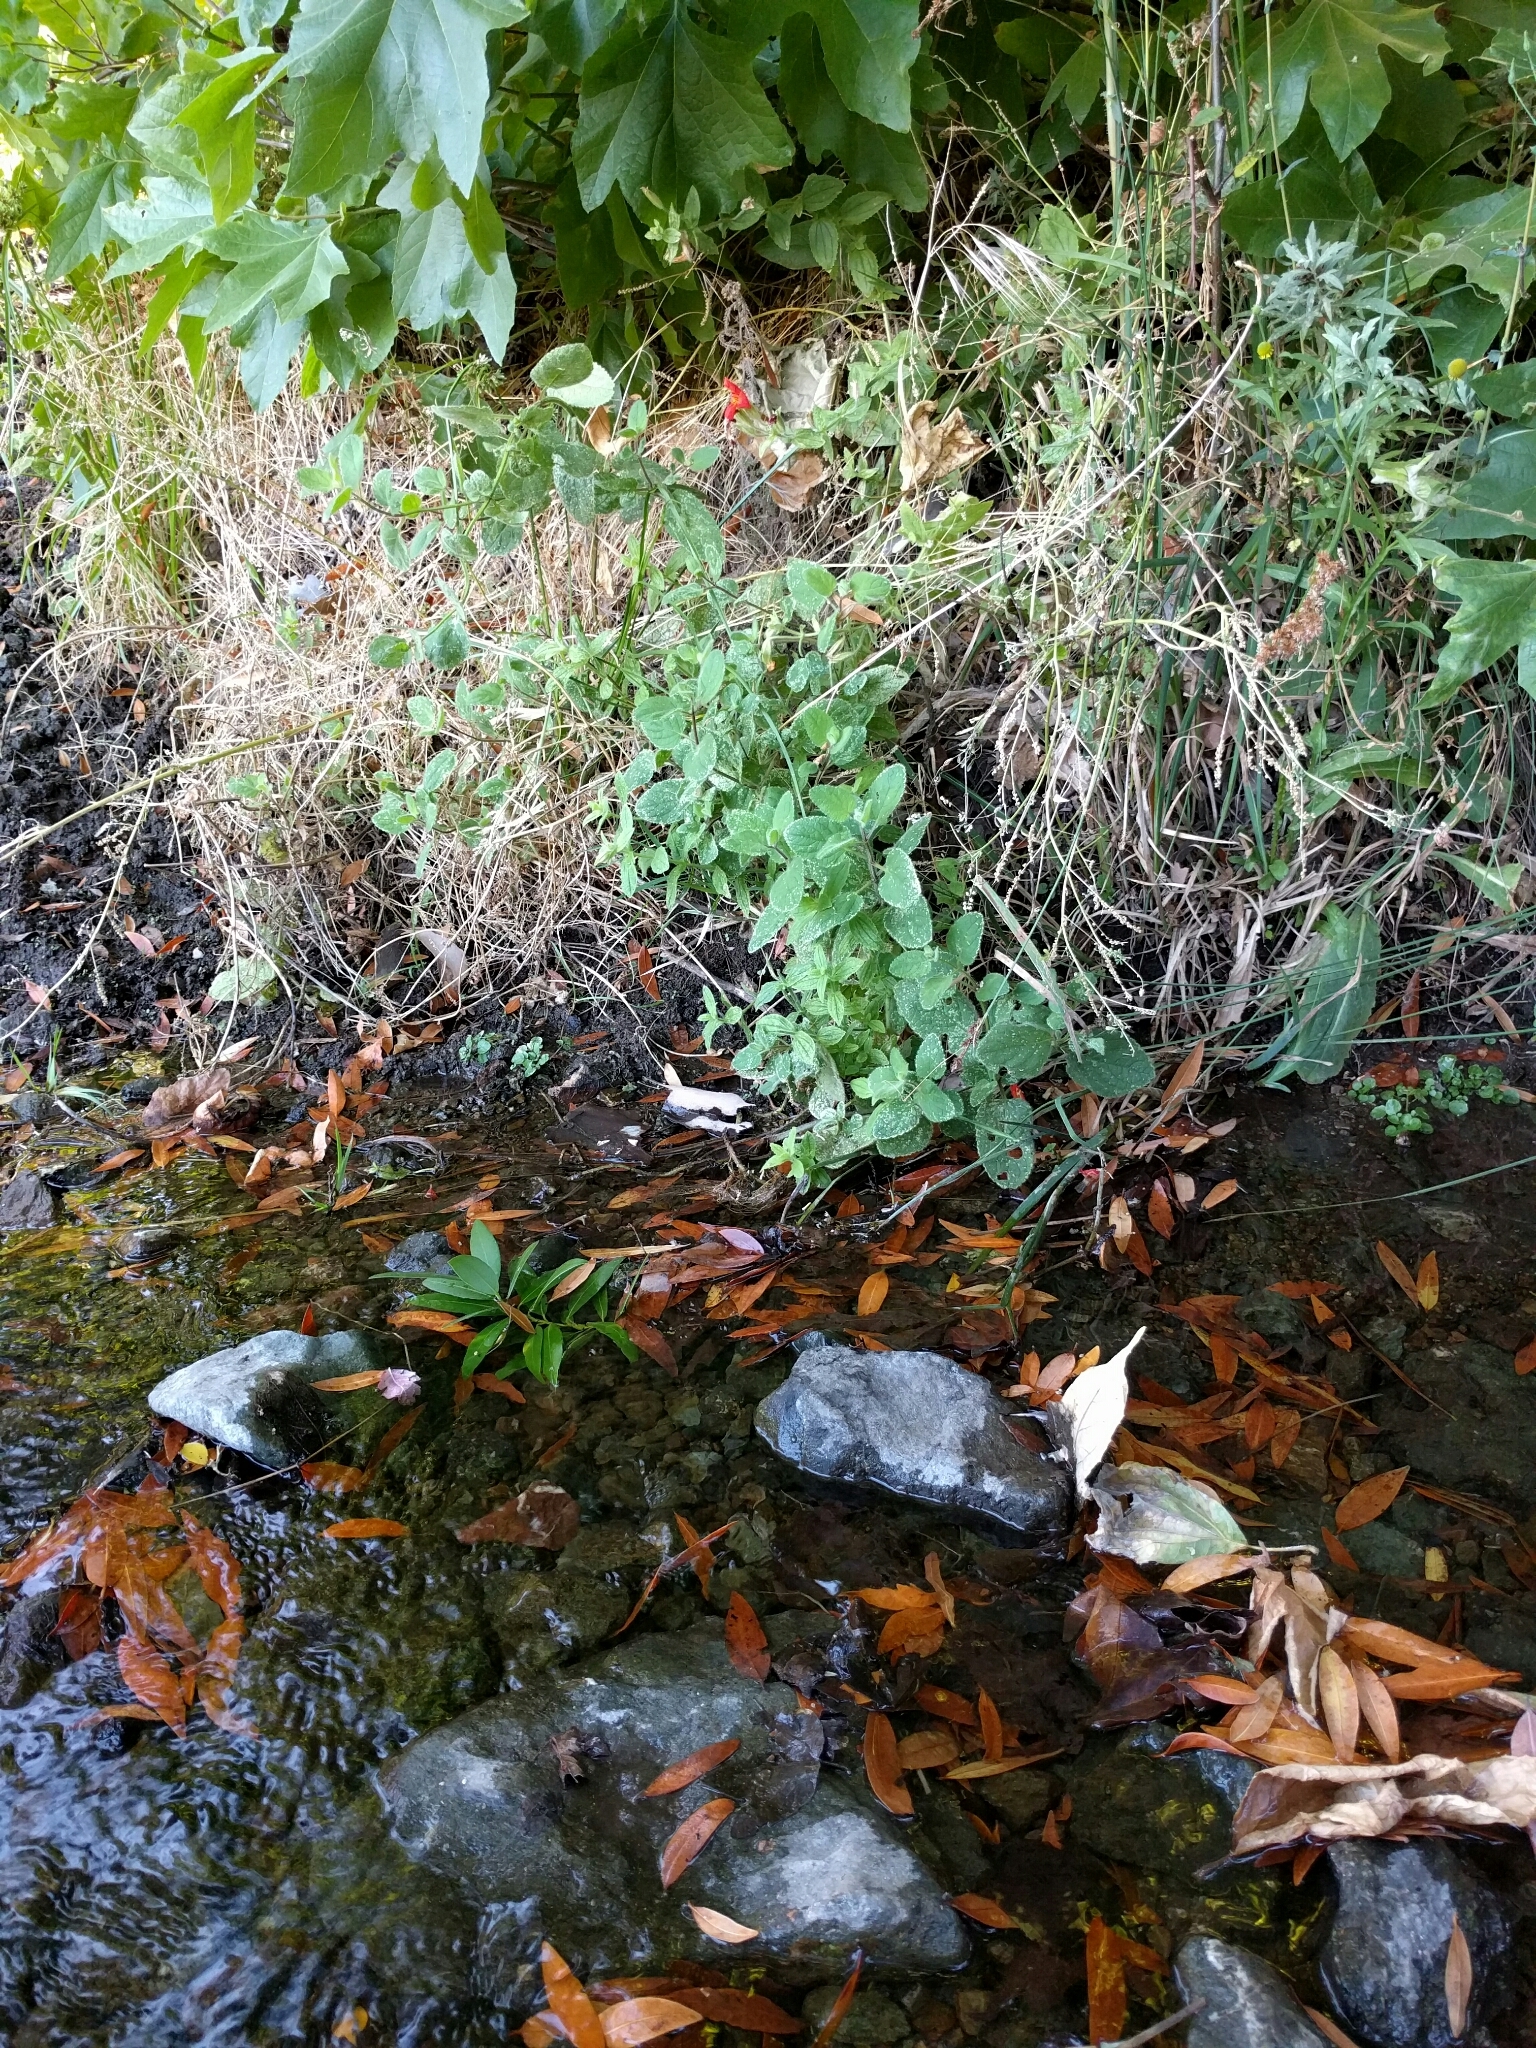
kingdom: Plantae
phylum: Tracheophyta
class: Magnoliopsida
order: Lamiales
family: Phrymaceae
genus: Erythranthe
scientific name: Erythranthe cardinalis
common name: Scarlet monkey-flower
